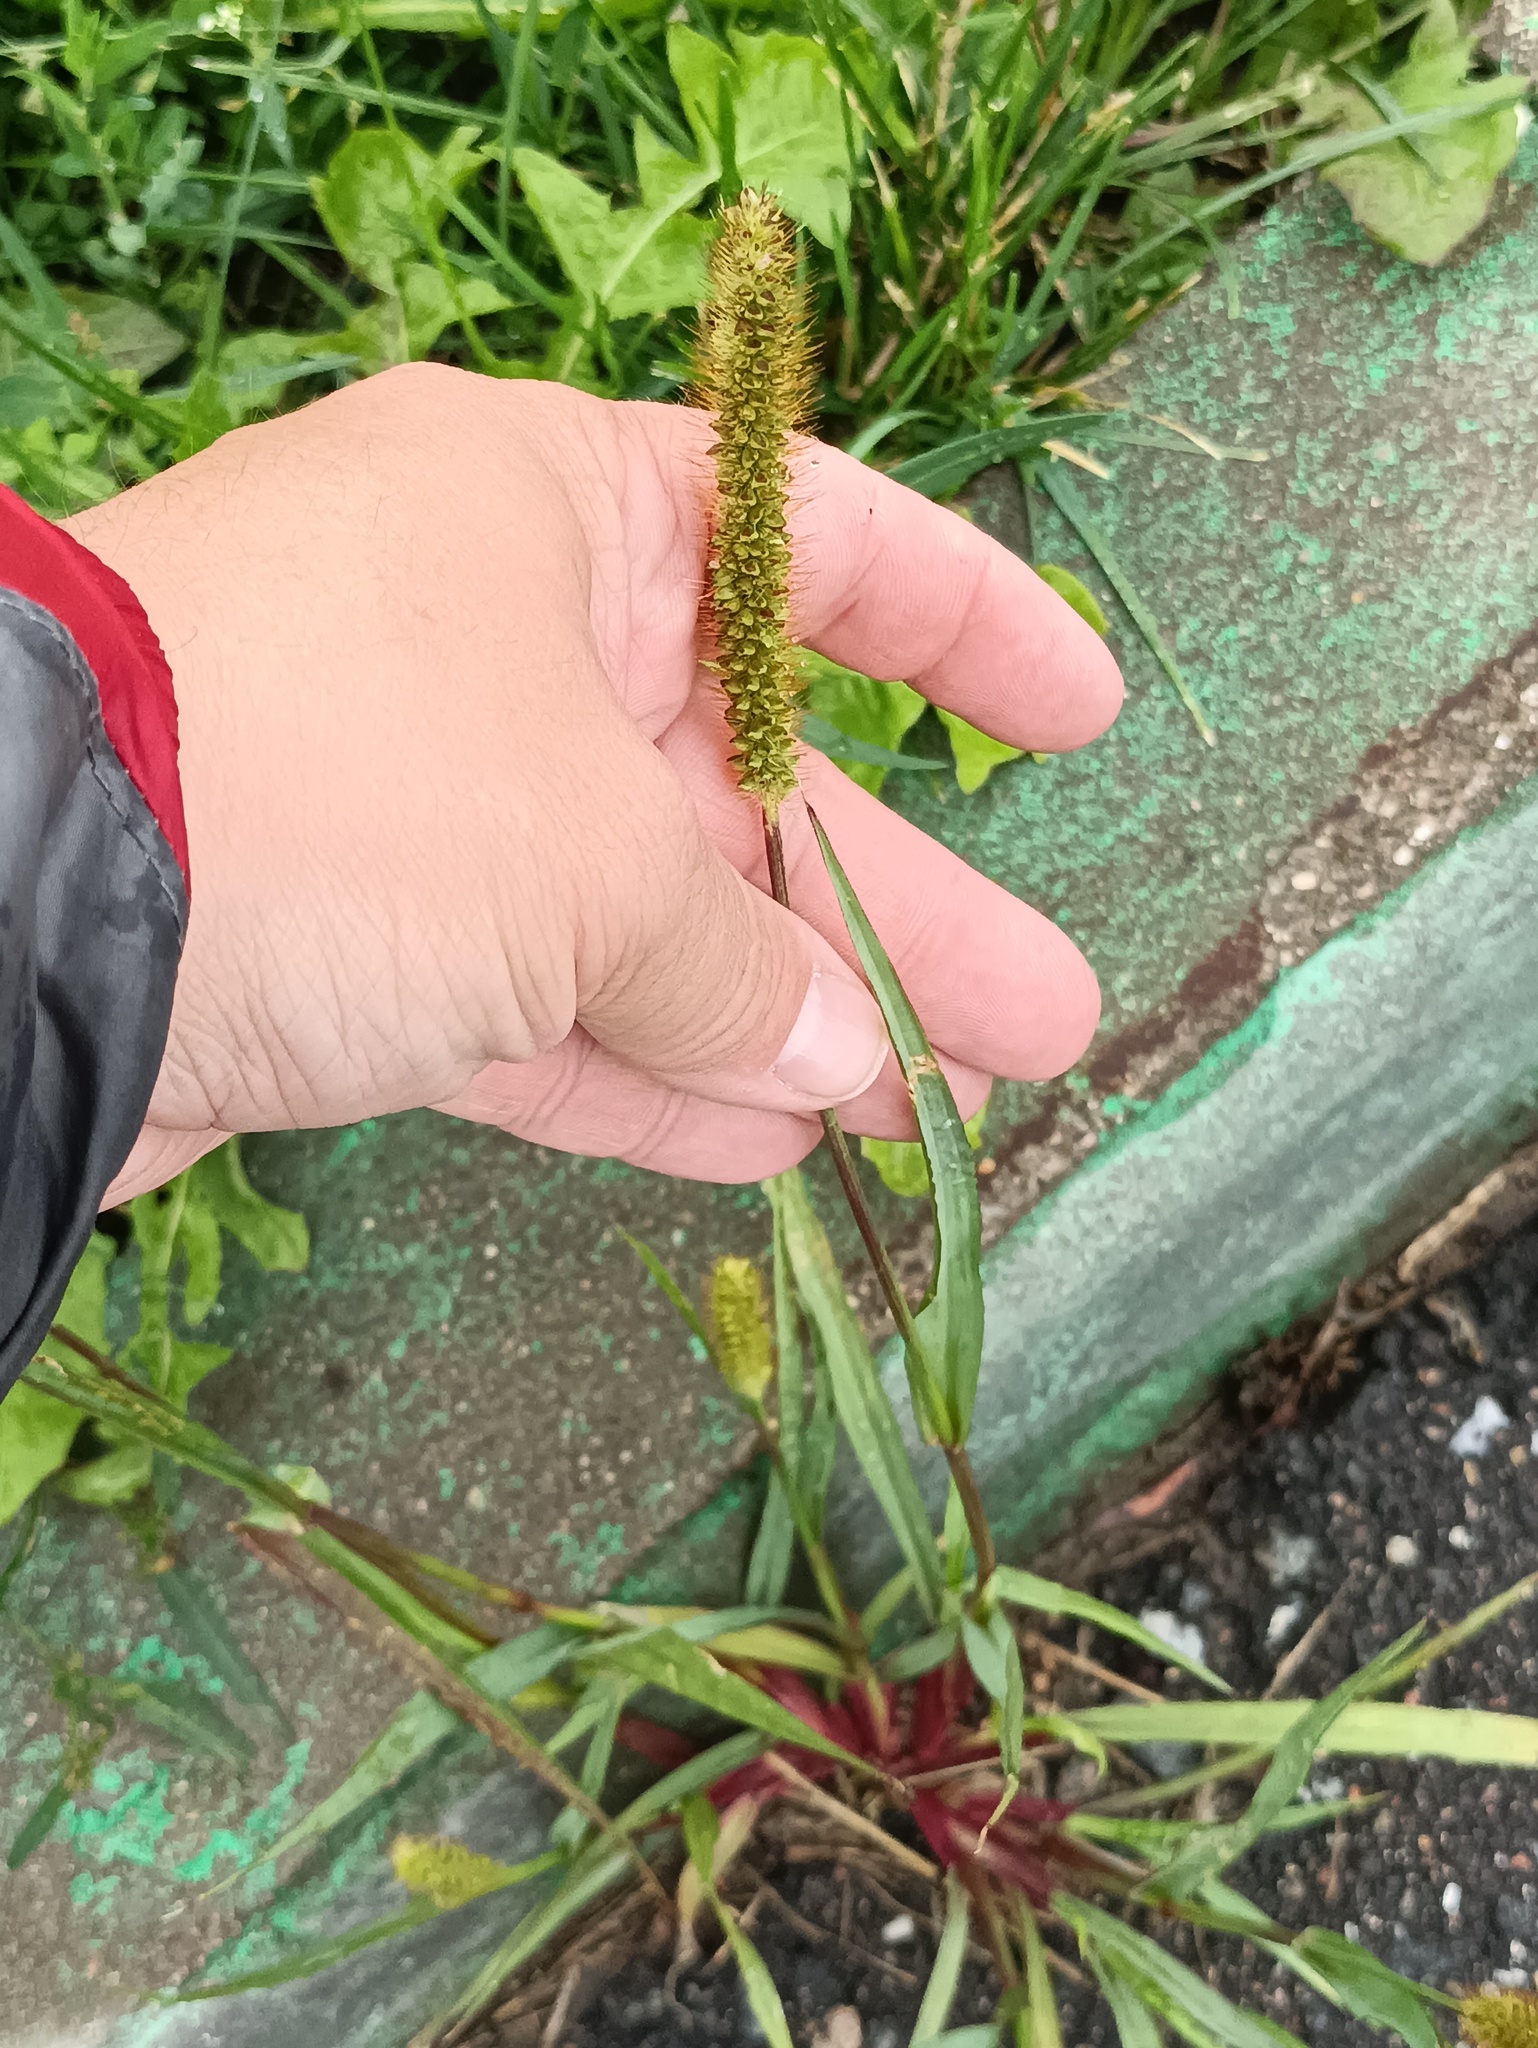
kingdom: Plantae
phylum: Tracheophyta
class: Liliopsida
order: Poales
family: Poaceae
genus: Setaria
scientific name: Setaria pumila
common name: Yellow bristle-grass
